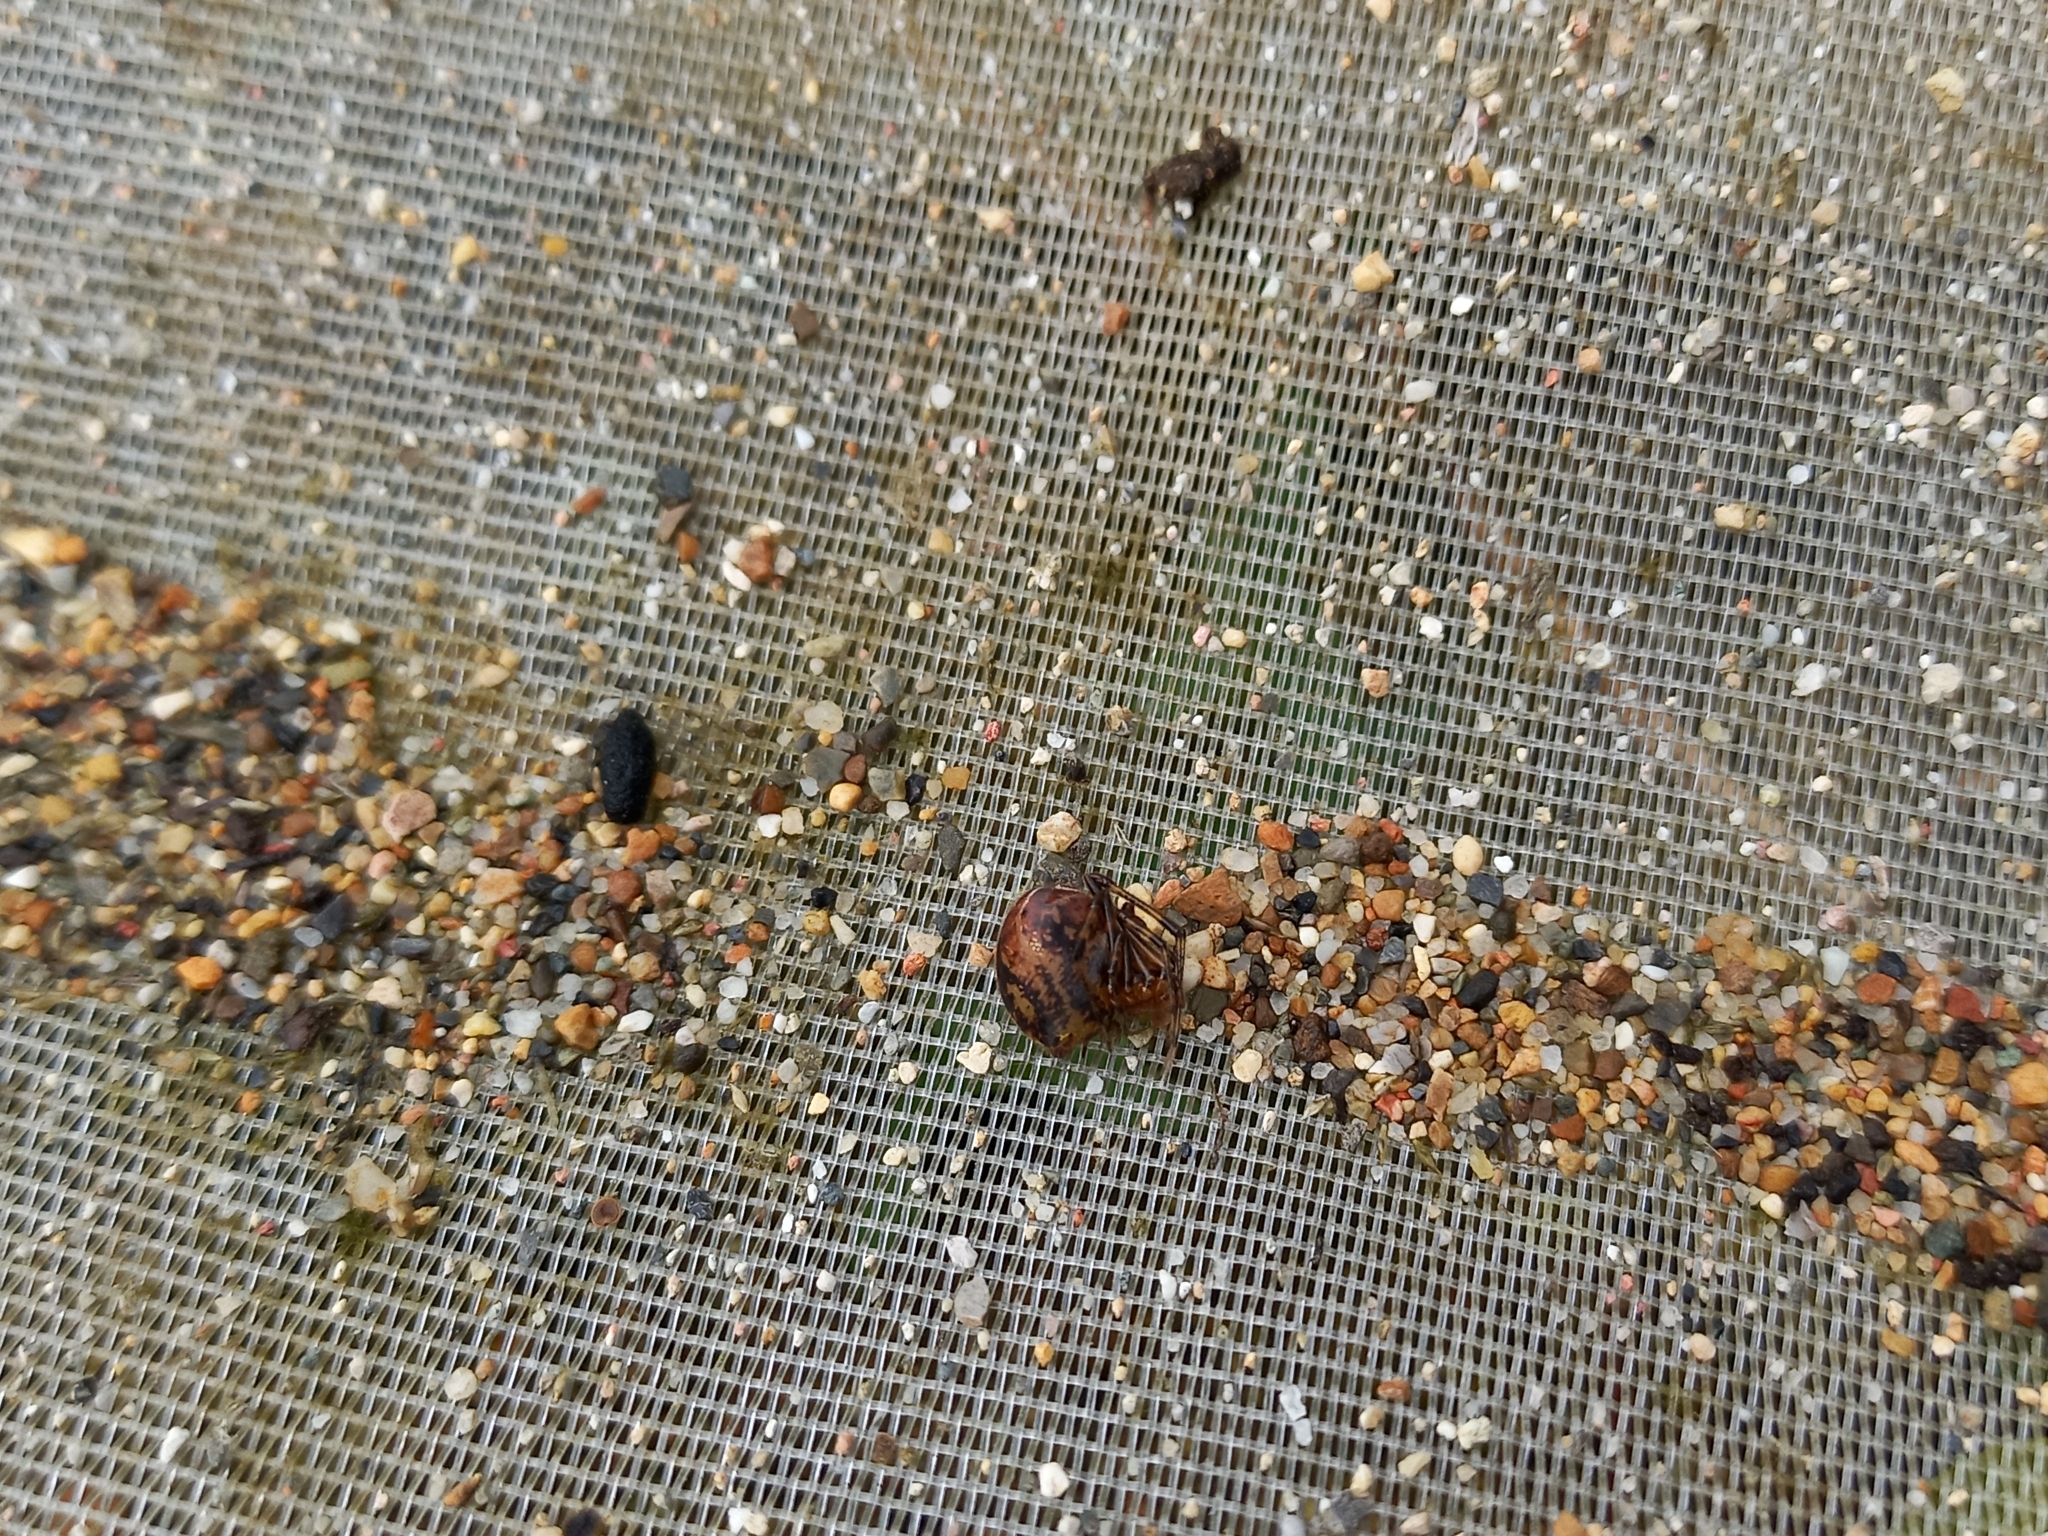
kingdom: Animalia
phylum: Arthropoda
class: Arachnida
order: Araneae
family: Theridiidae
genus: Nihonhimea
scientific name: Nihonhimea tesselata
